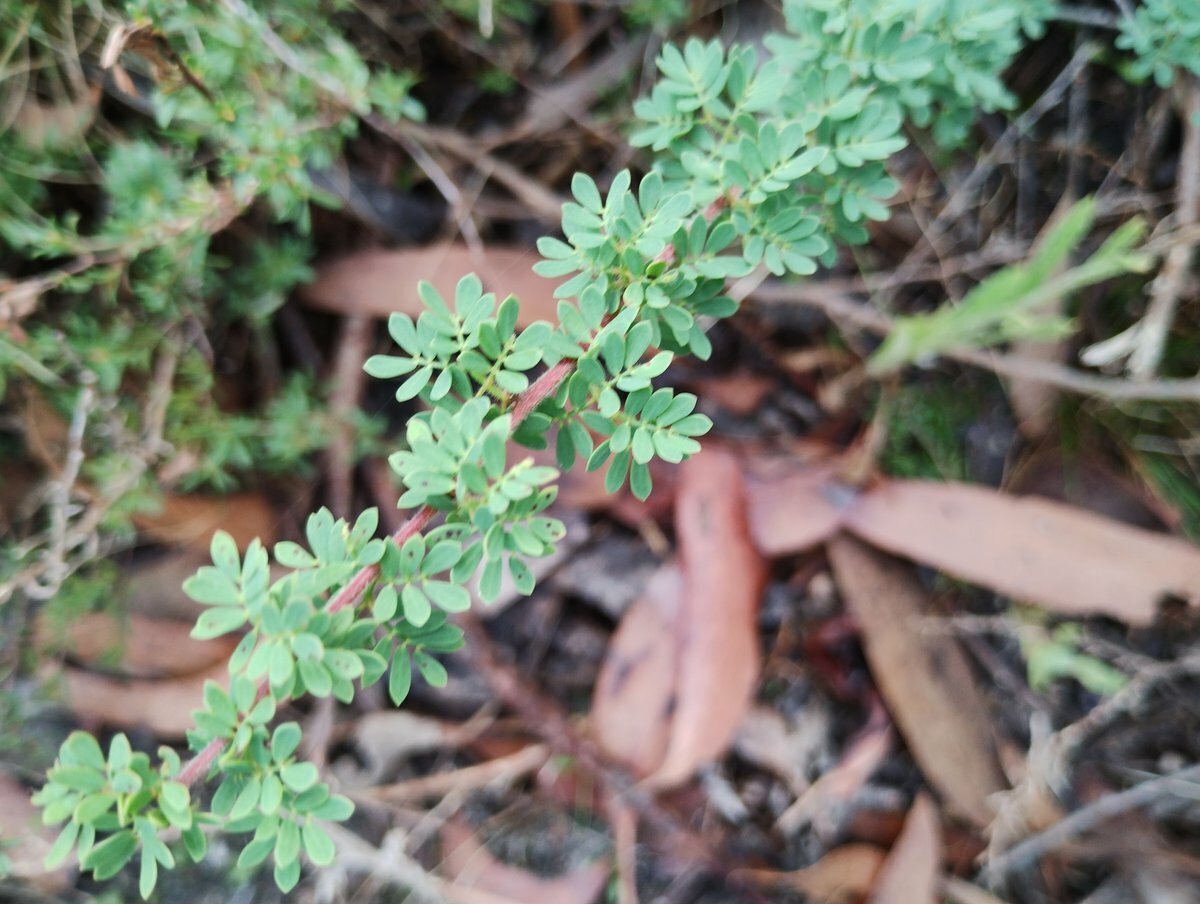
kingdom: Plantae
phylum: Tracheophyta
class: Magnoliopsida
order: Fabales
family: Fabaceae
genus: Acacia
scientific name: Acacia mitchellii
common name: Mitchell's wattle
